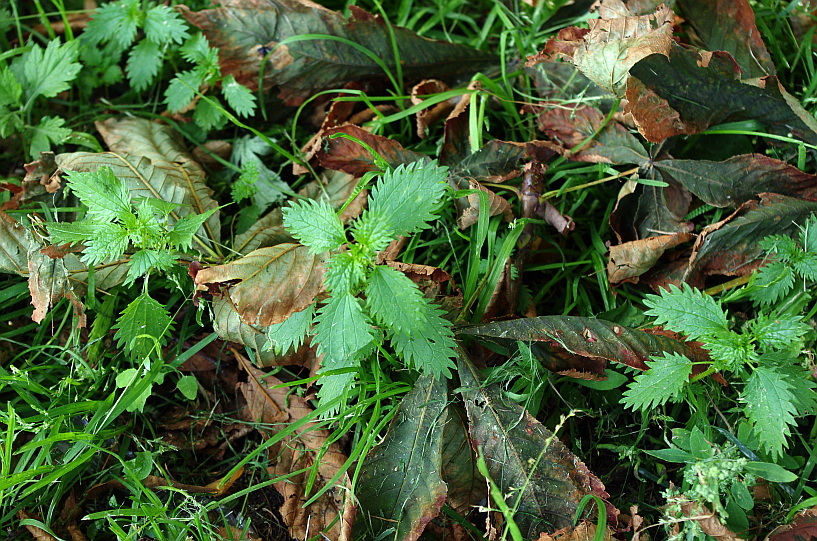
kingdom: Plantae
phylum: Tracheophyta
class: Magnoliopsida
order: Rosales
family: Urticaceae
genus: Urtica
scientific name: Urtica urens
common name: Dwarf nettle
